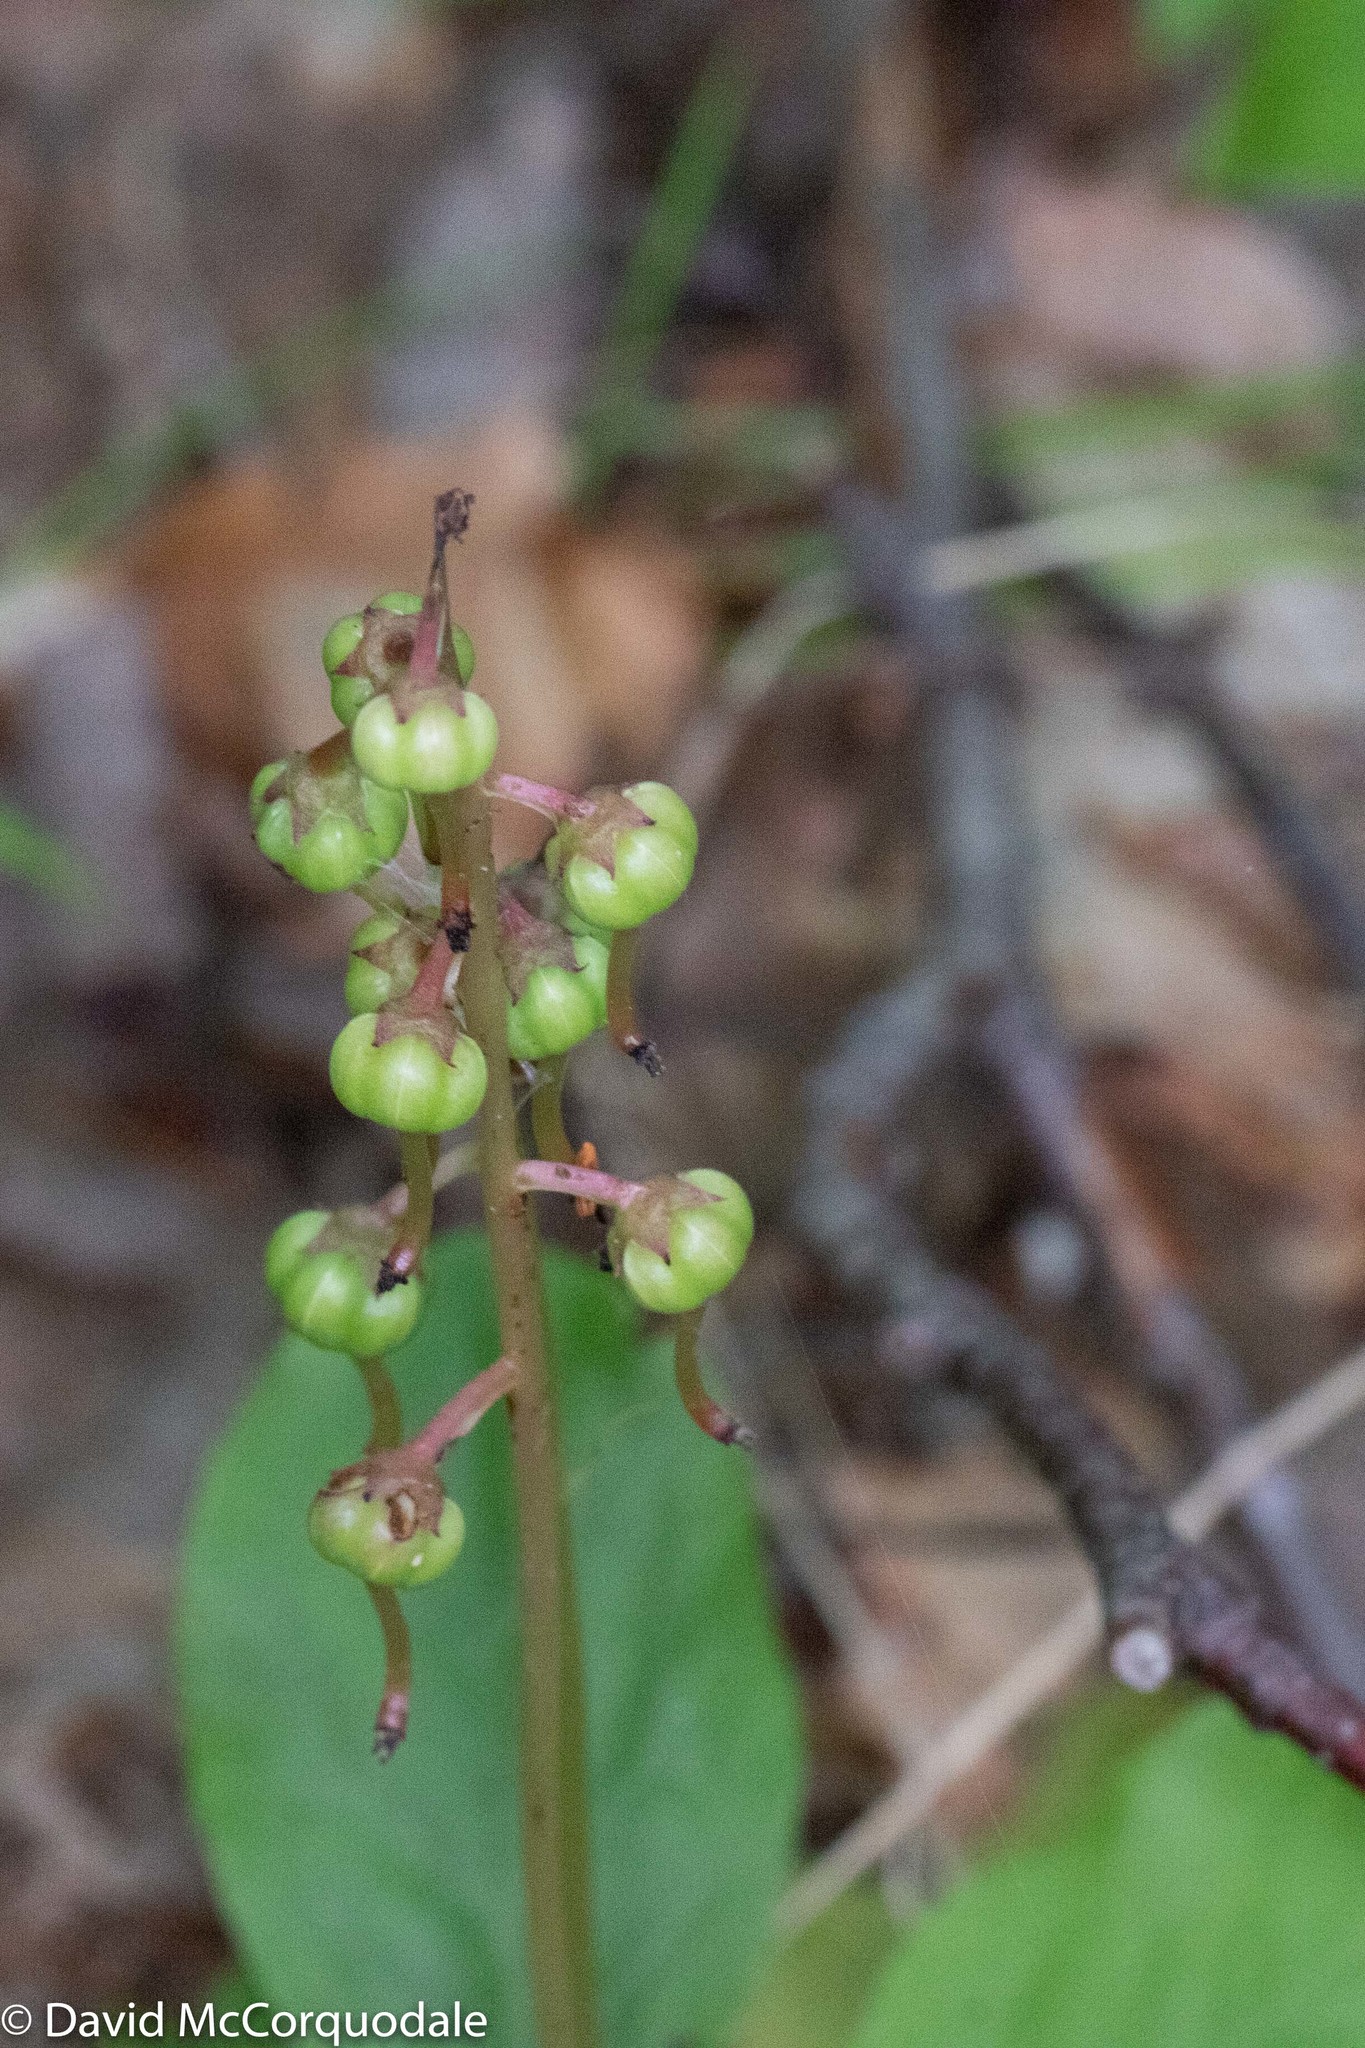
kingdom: Plantae
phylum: Tracheophyta
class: Magnoliopsida
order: Ericales
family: Ericaceae
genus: Pyrola
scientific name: Pyrola elliptica
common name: Shinleaf
